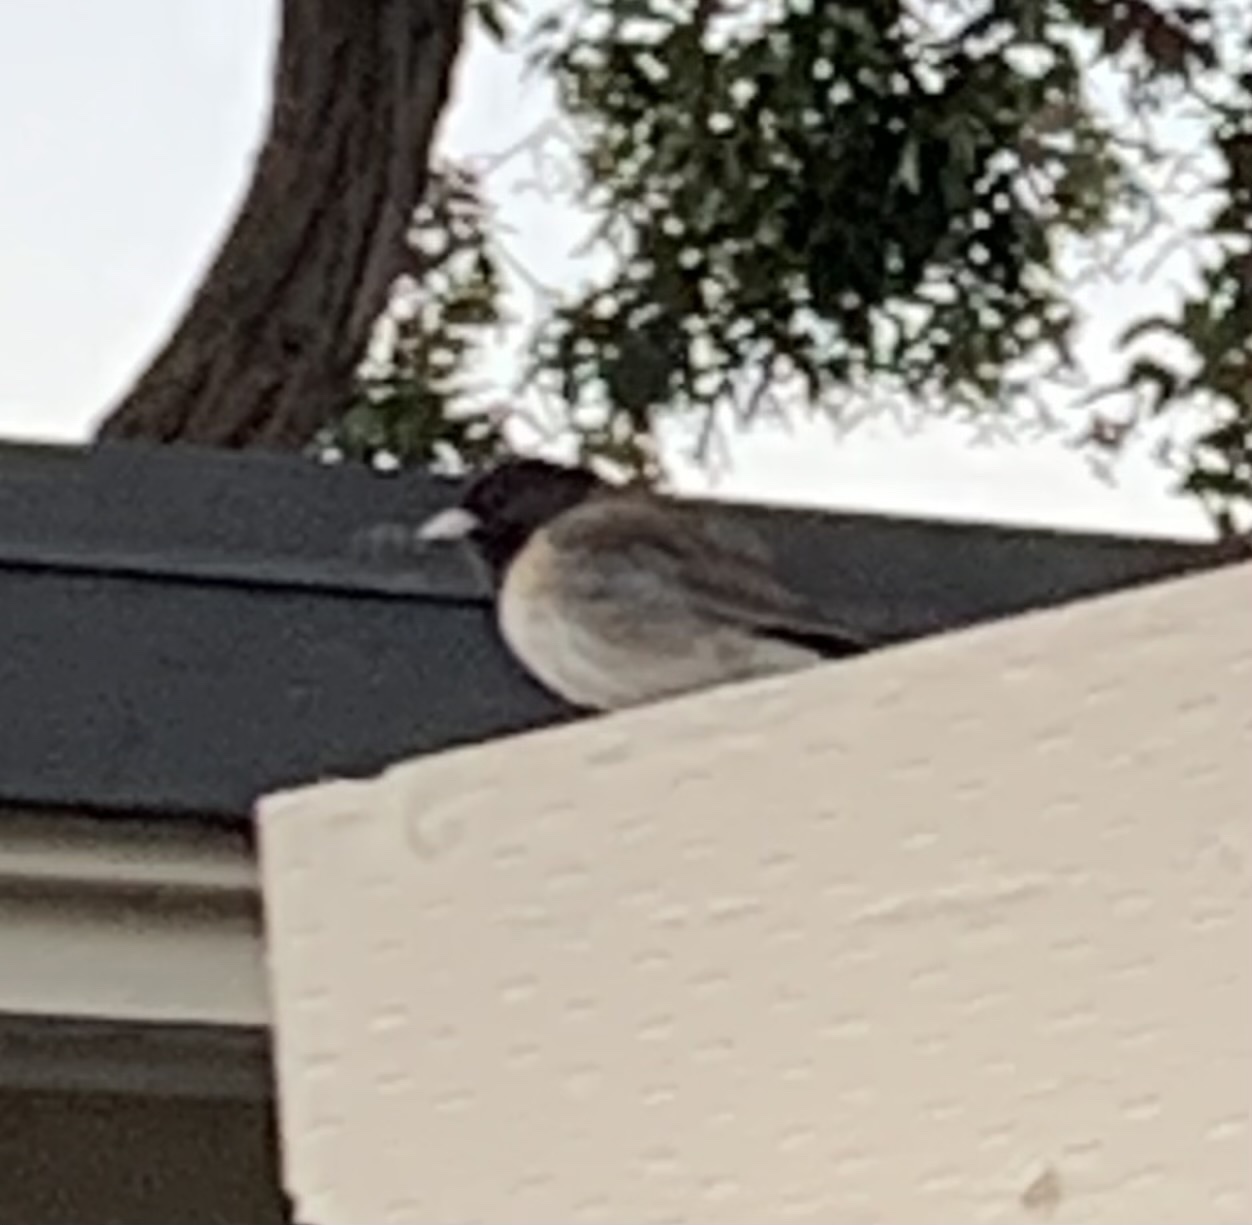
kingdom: Animalia
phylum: Chordata
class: Aves
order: Passeriformes
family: Passerellidae
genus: Junco
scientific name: Junco hyemalis
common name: Dark-eyed junco
